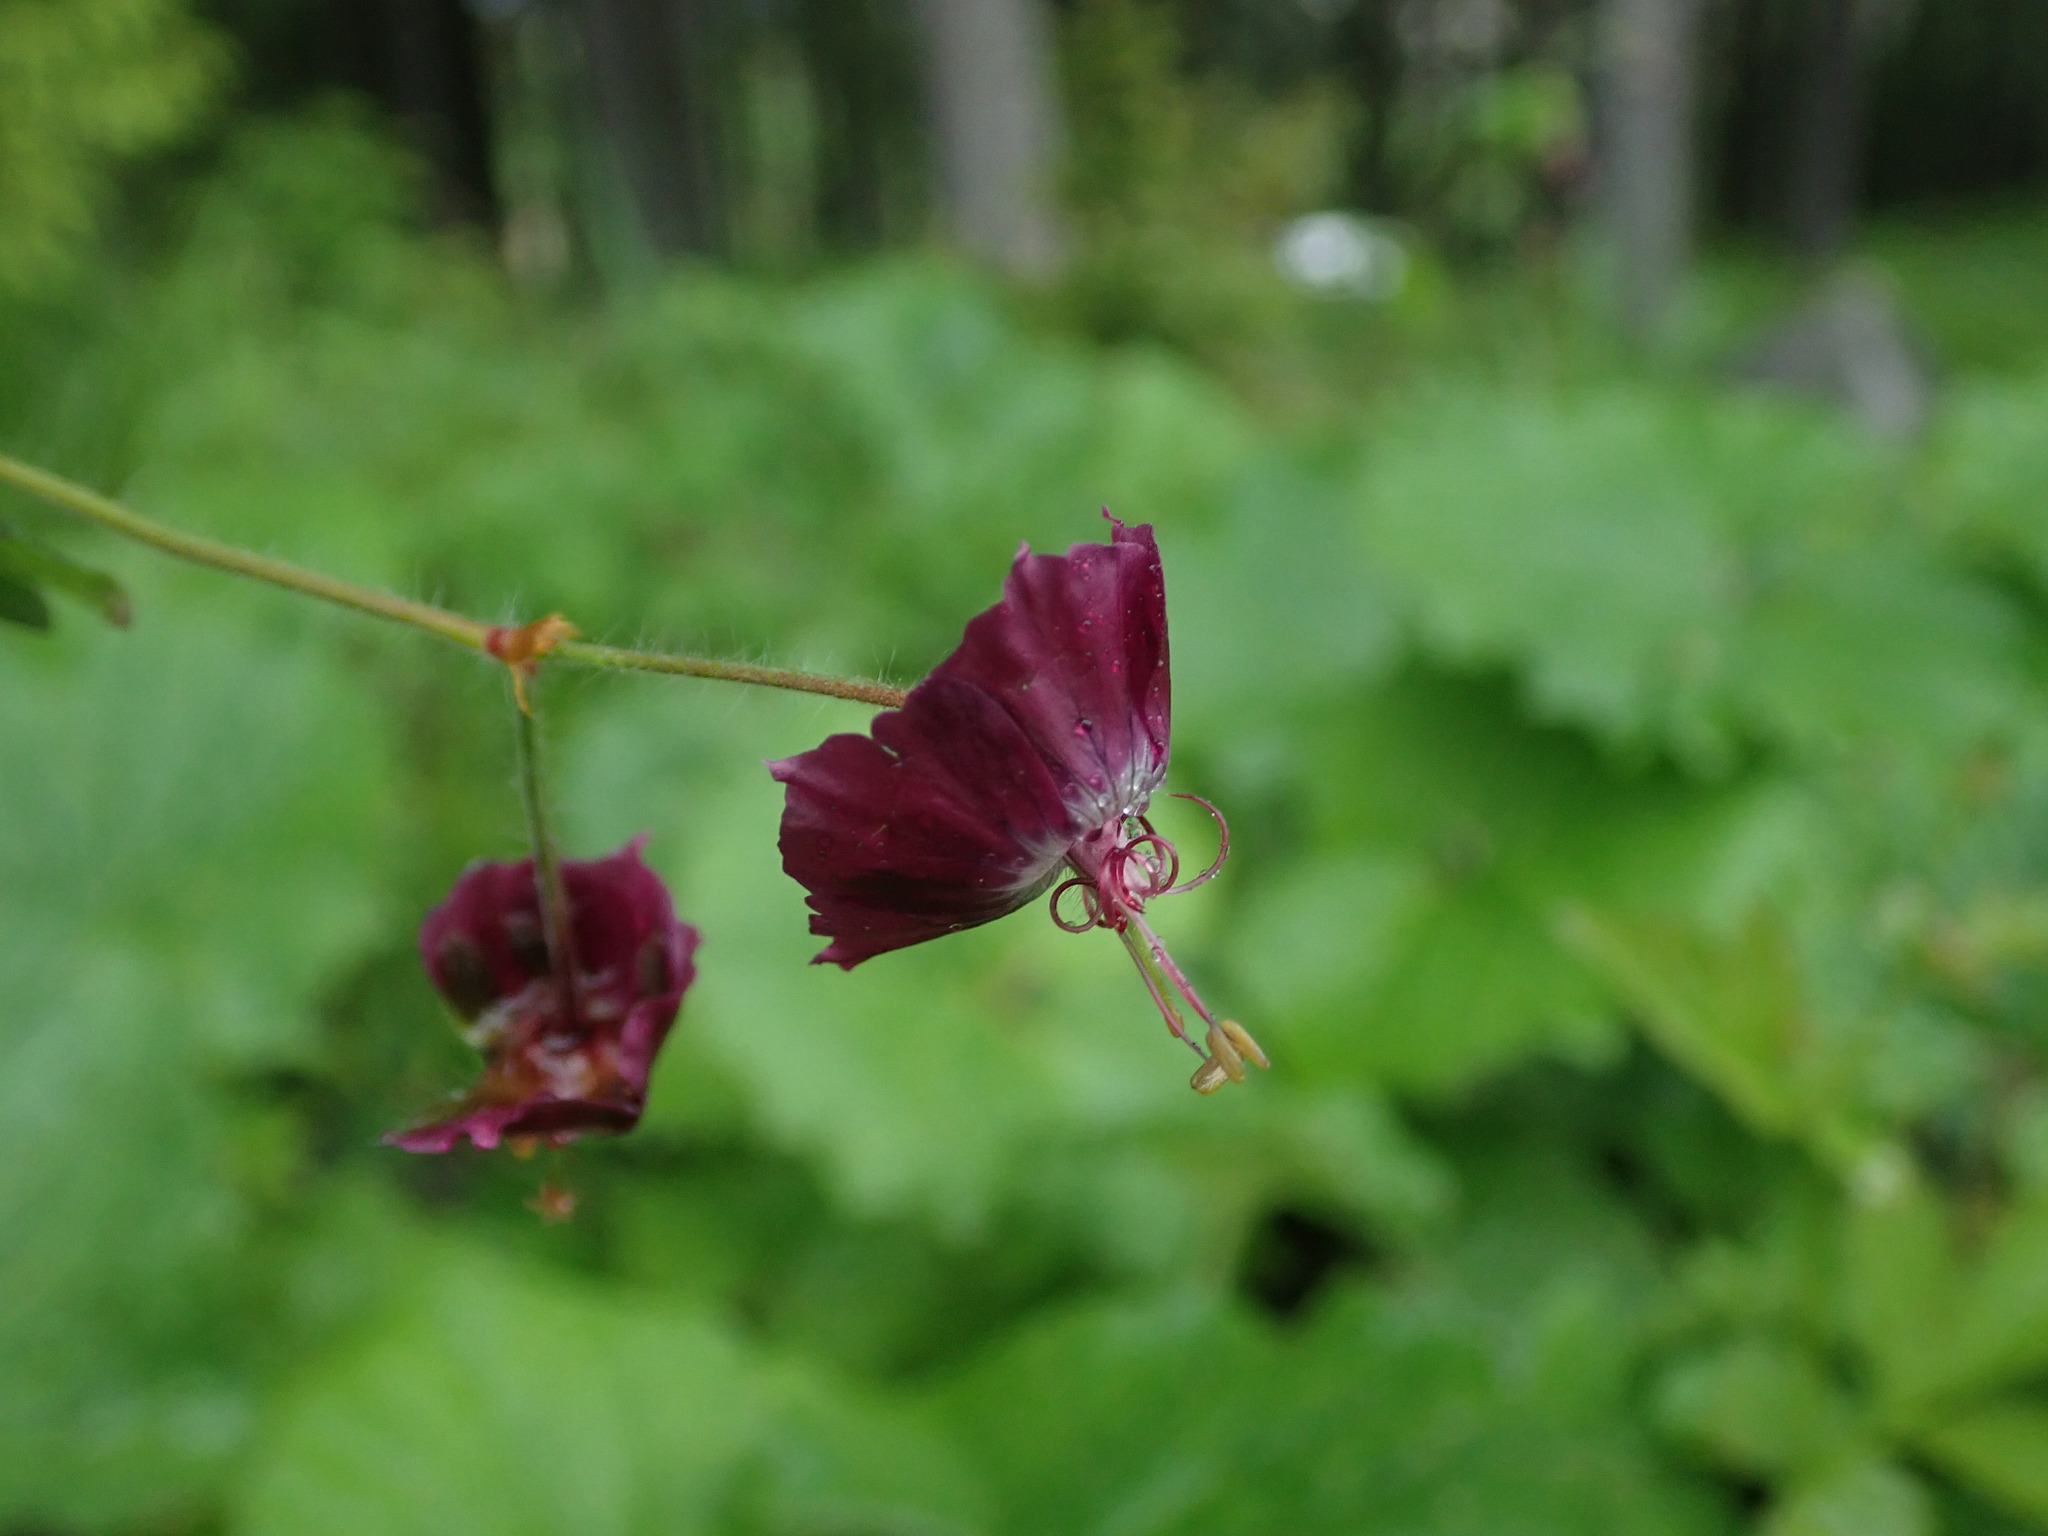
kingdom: Plantae
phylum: Tracheophyta
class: Magnoliopsida
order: Geraniales
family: Geraniaceae
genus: Geranium
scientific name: Geranium phaeum
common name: Dusky crane's-bill
